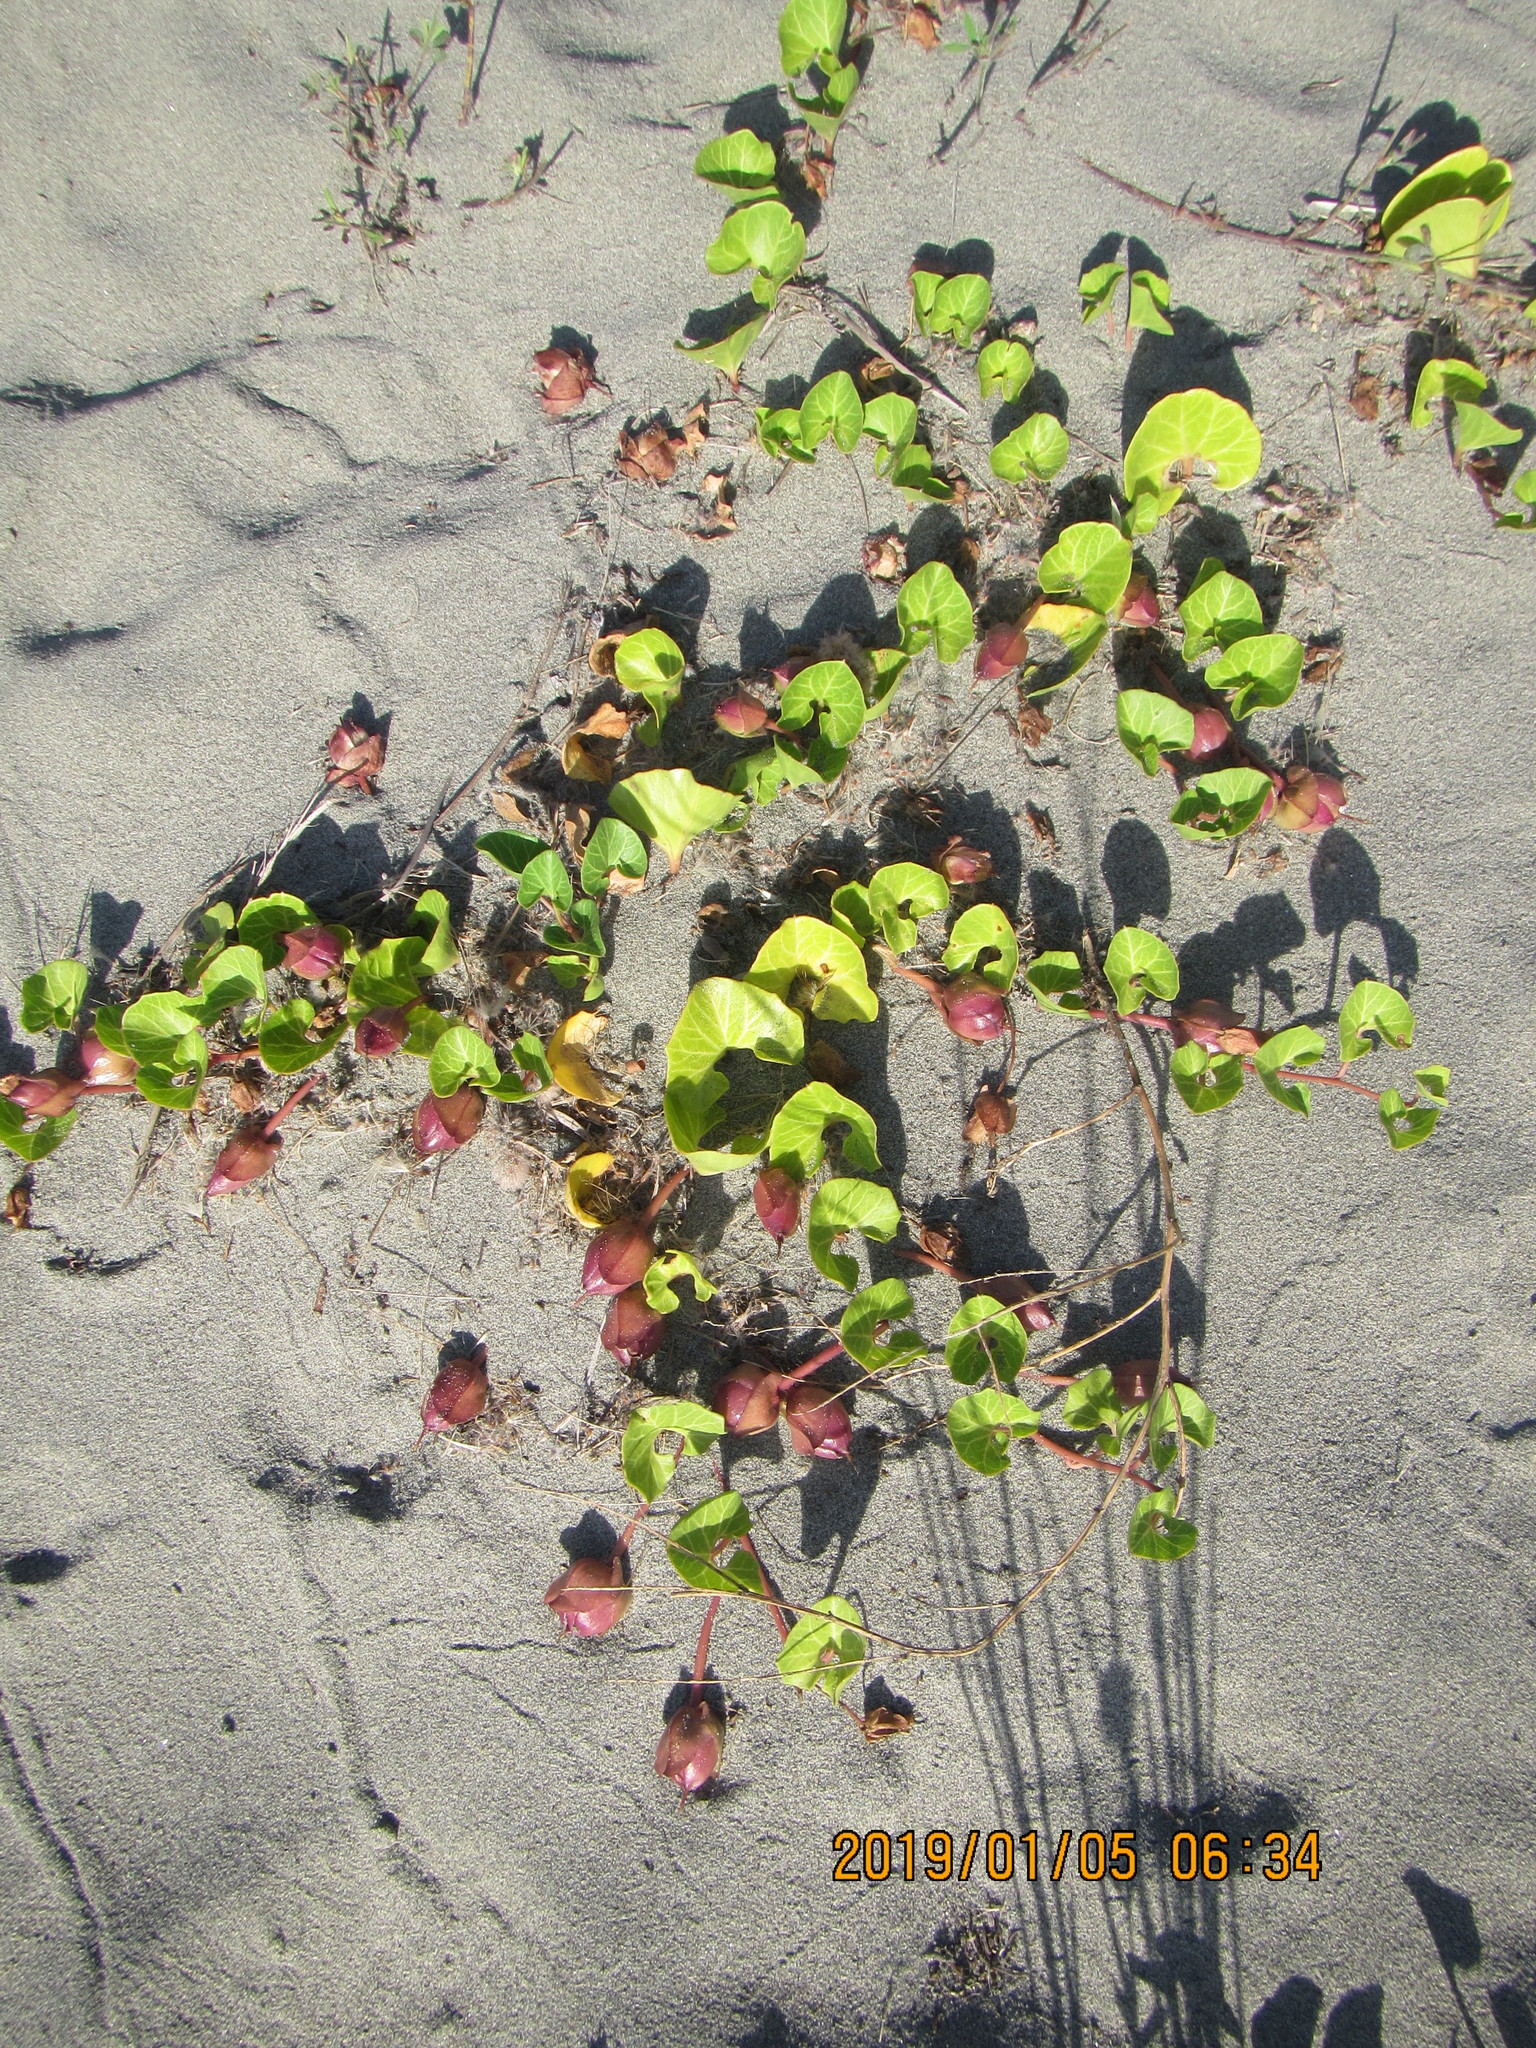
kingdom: Plantae
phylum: Tracheophyta
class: Magnoliopsida
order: Solanales
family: Convolvulaceae
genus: Calystegia
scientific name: Calystegia soldanella
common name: Sea bindweed
